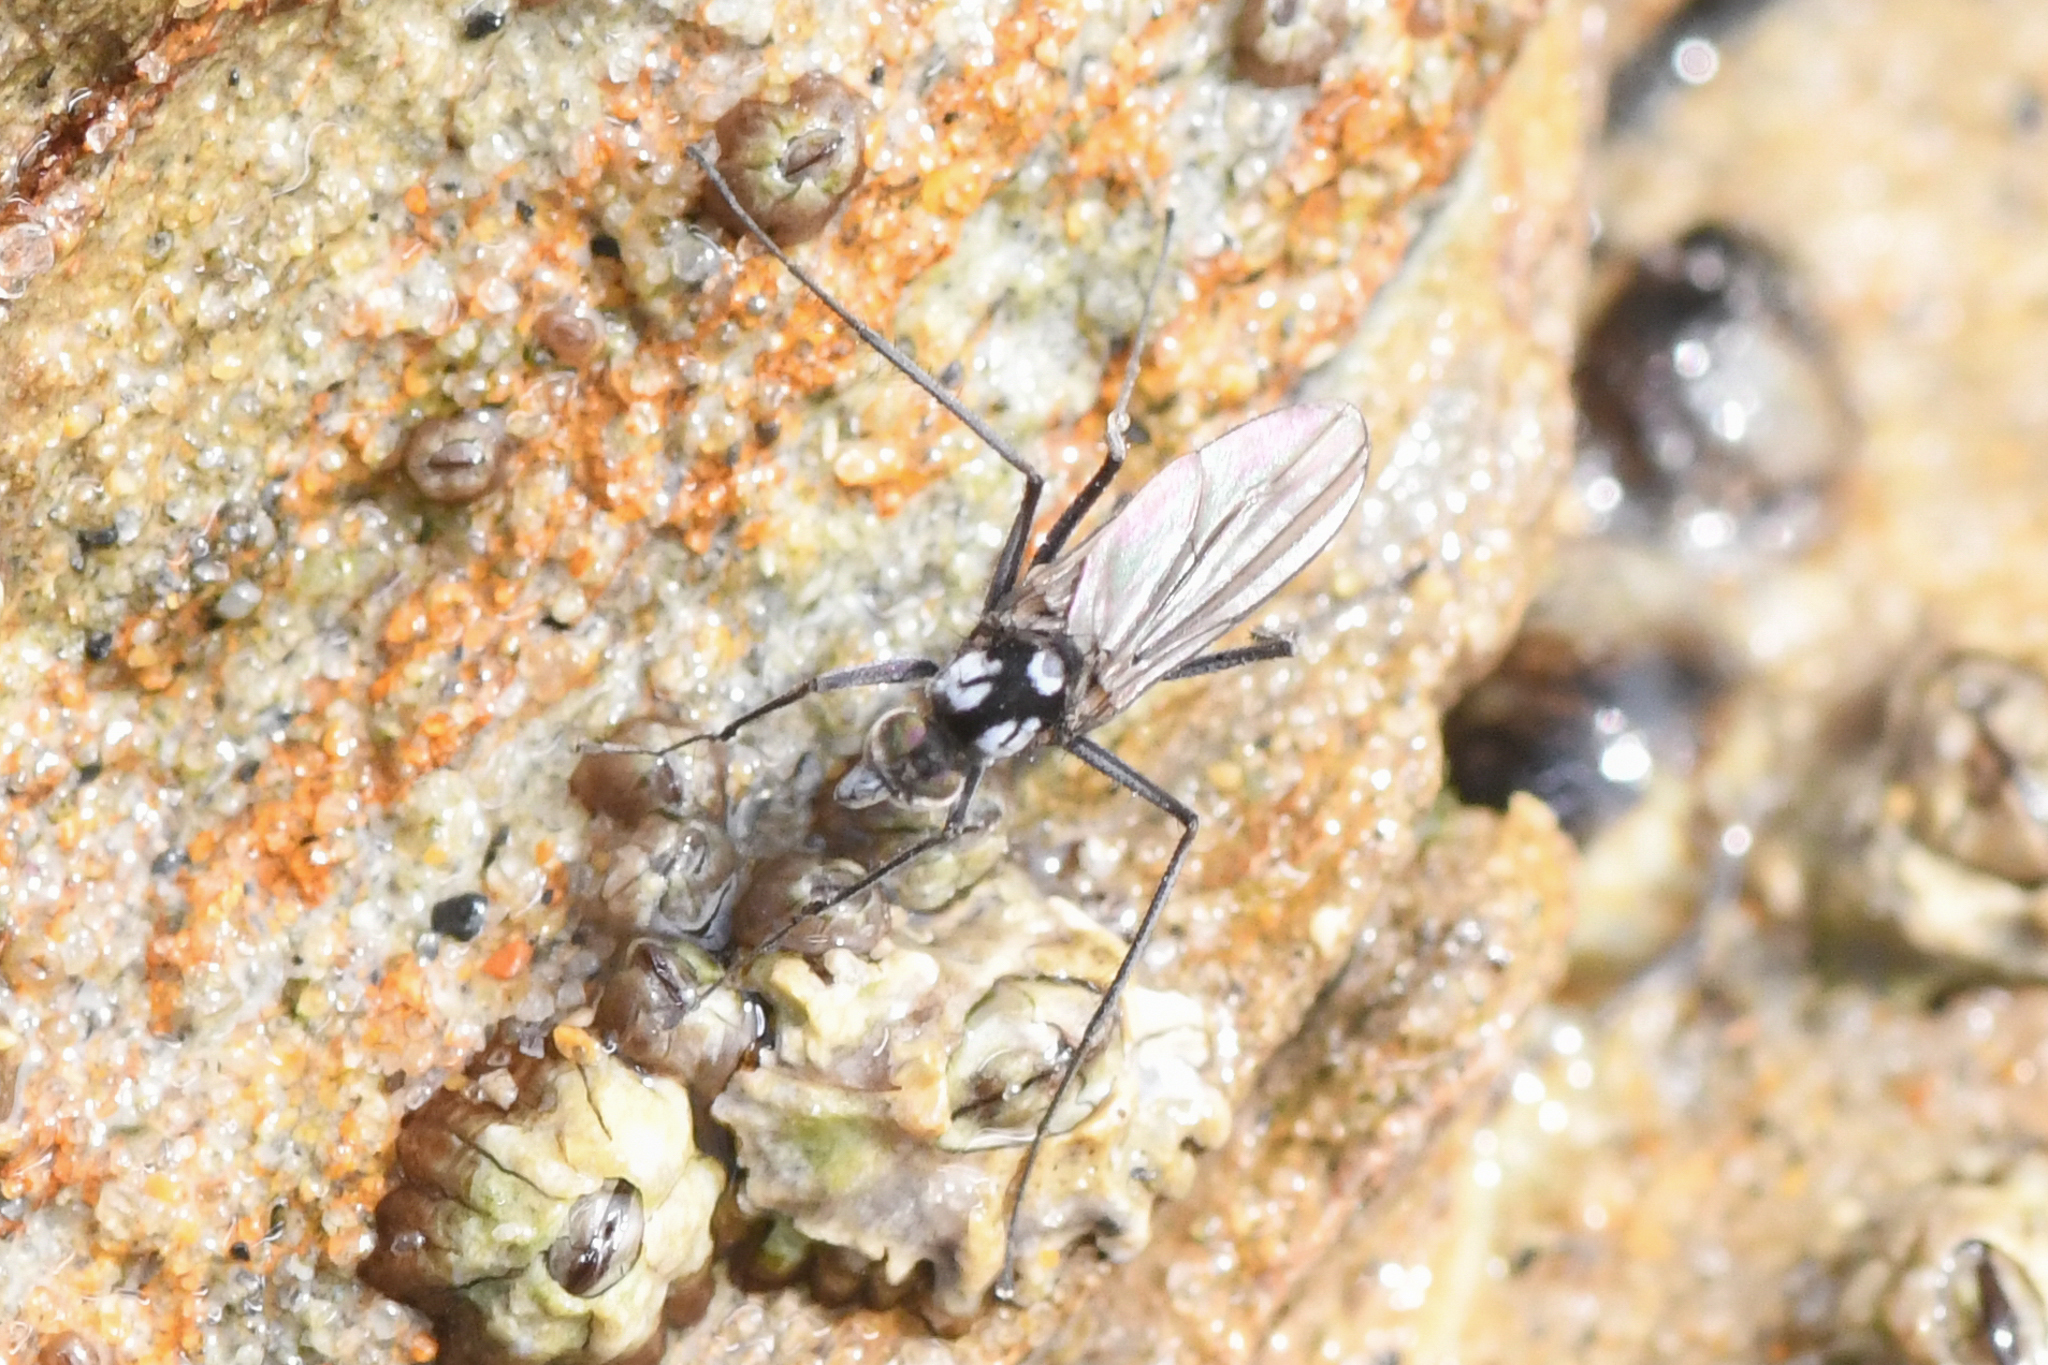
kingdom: Animalia
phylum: Arthropoda
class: Insecta
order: Diptera
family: Dolichopodidae
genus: Thambemyia
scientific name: Thambemyia borealis
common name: Fly
